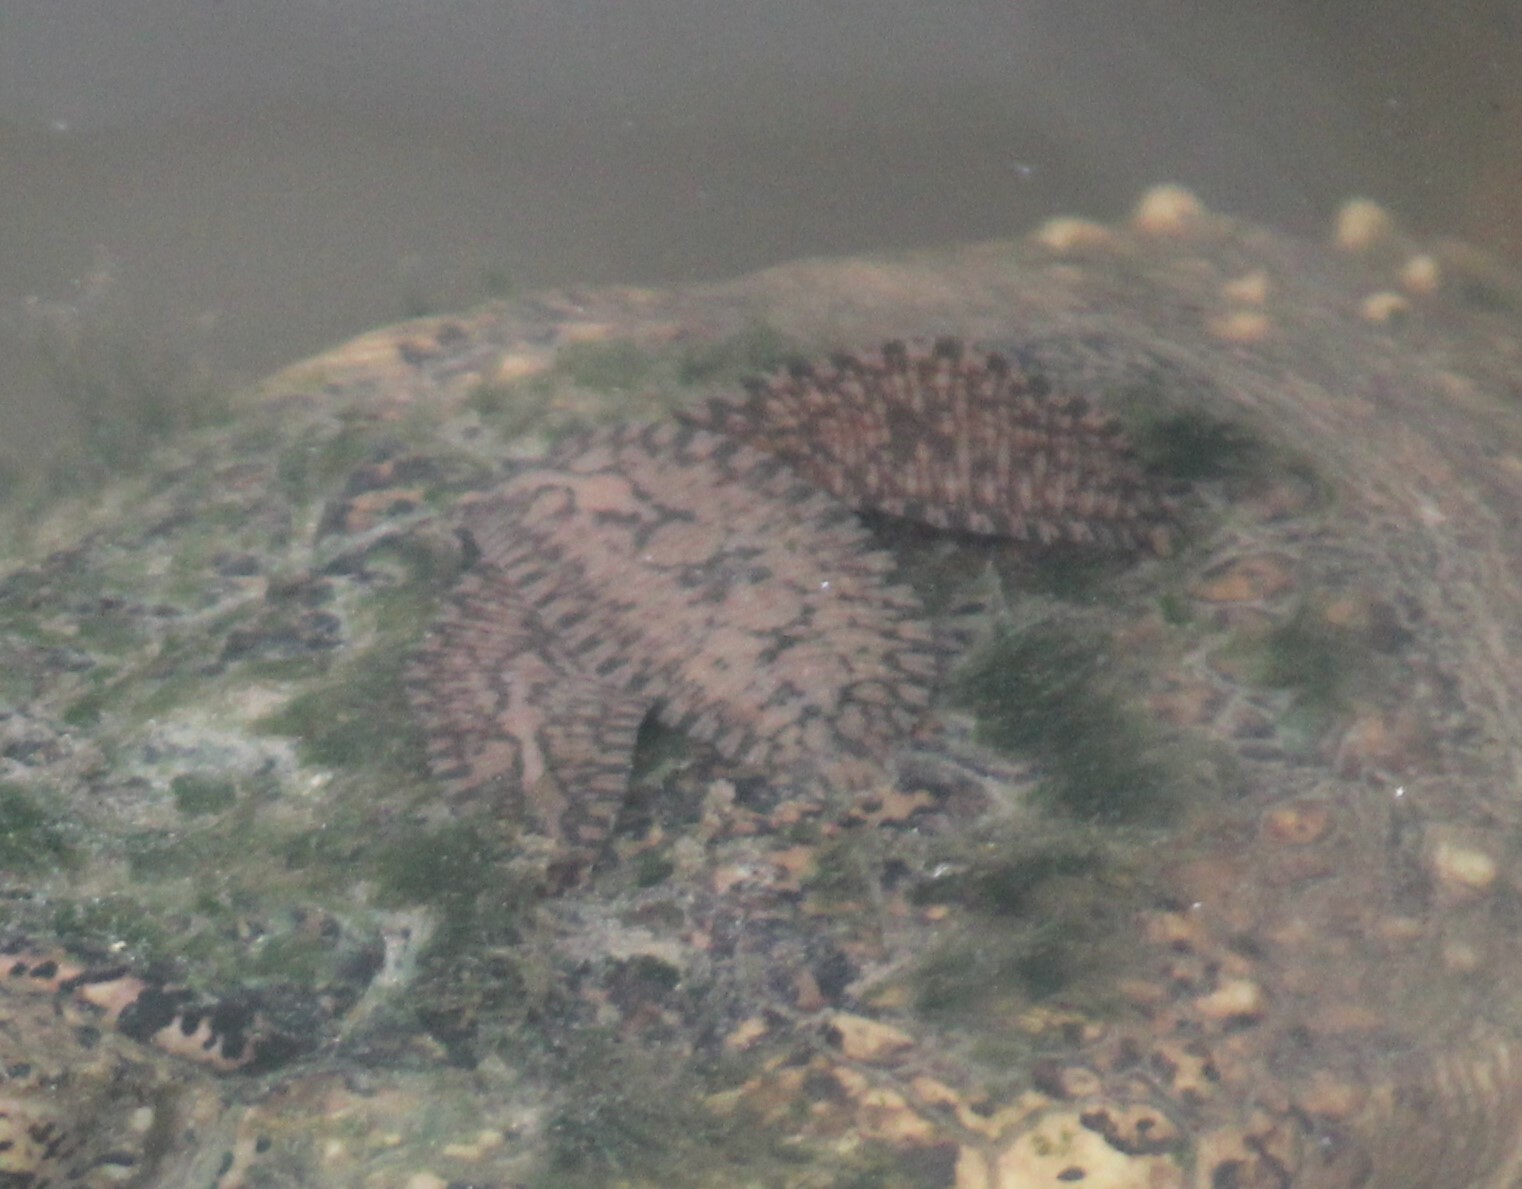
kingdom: Animalia
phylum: Annelida
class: Clitellata
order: Rhynchobdellida
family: Glossiphoniidae
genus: Placobdella
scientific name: Placobdella parasitica
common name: Smooth turtle leech
